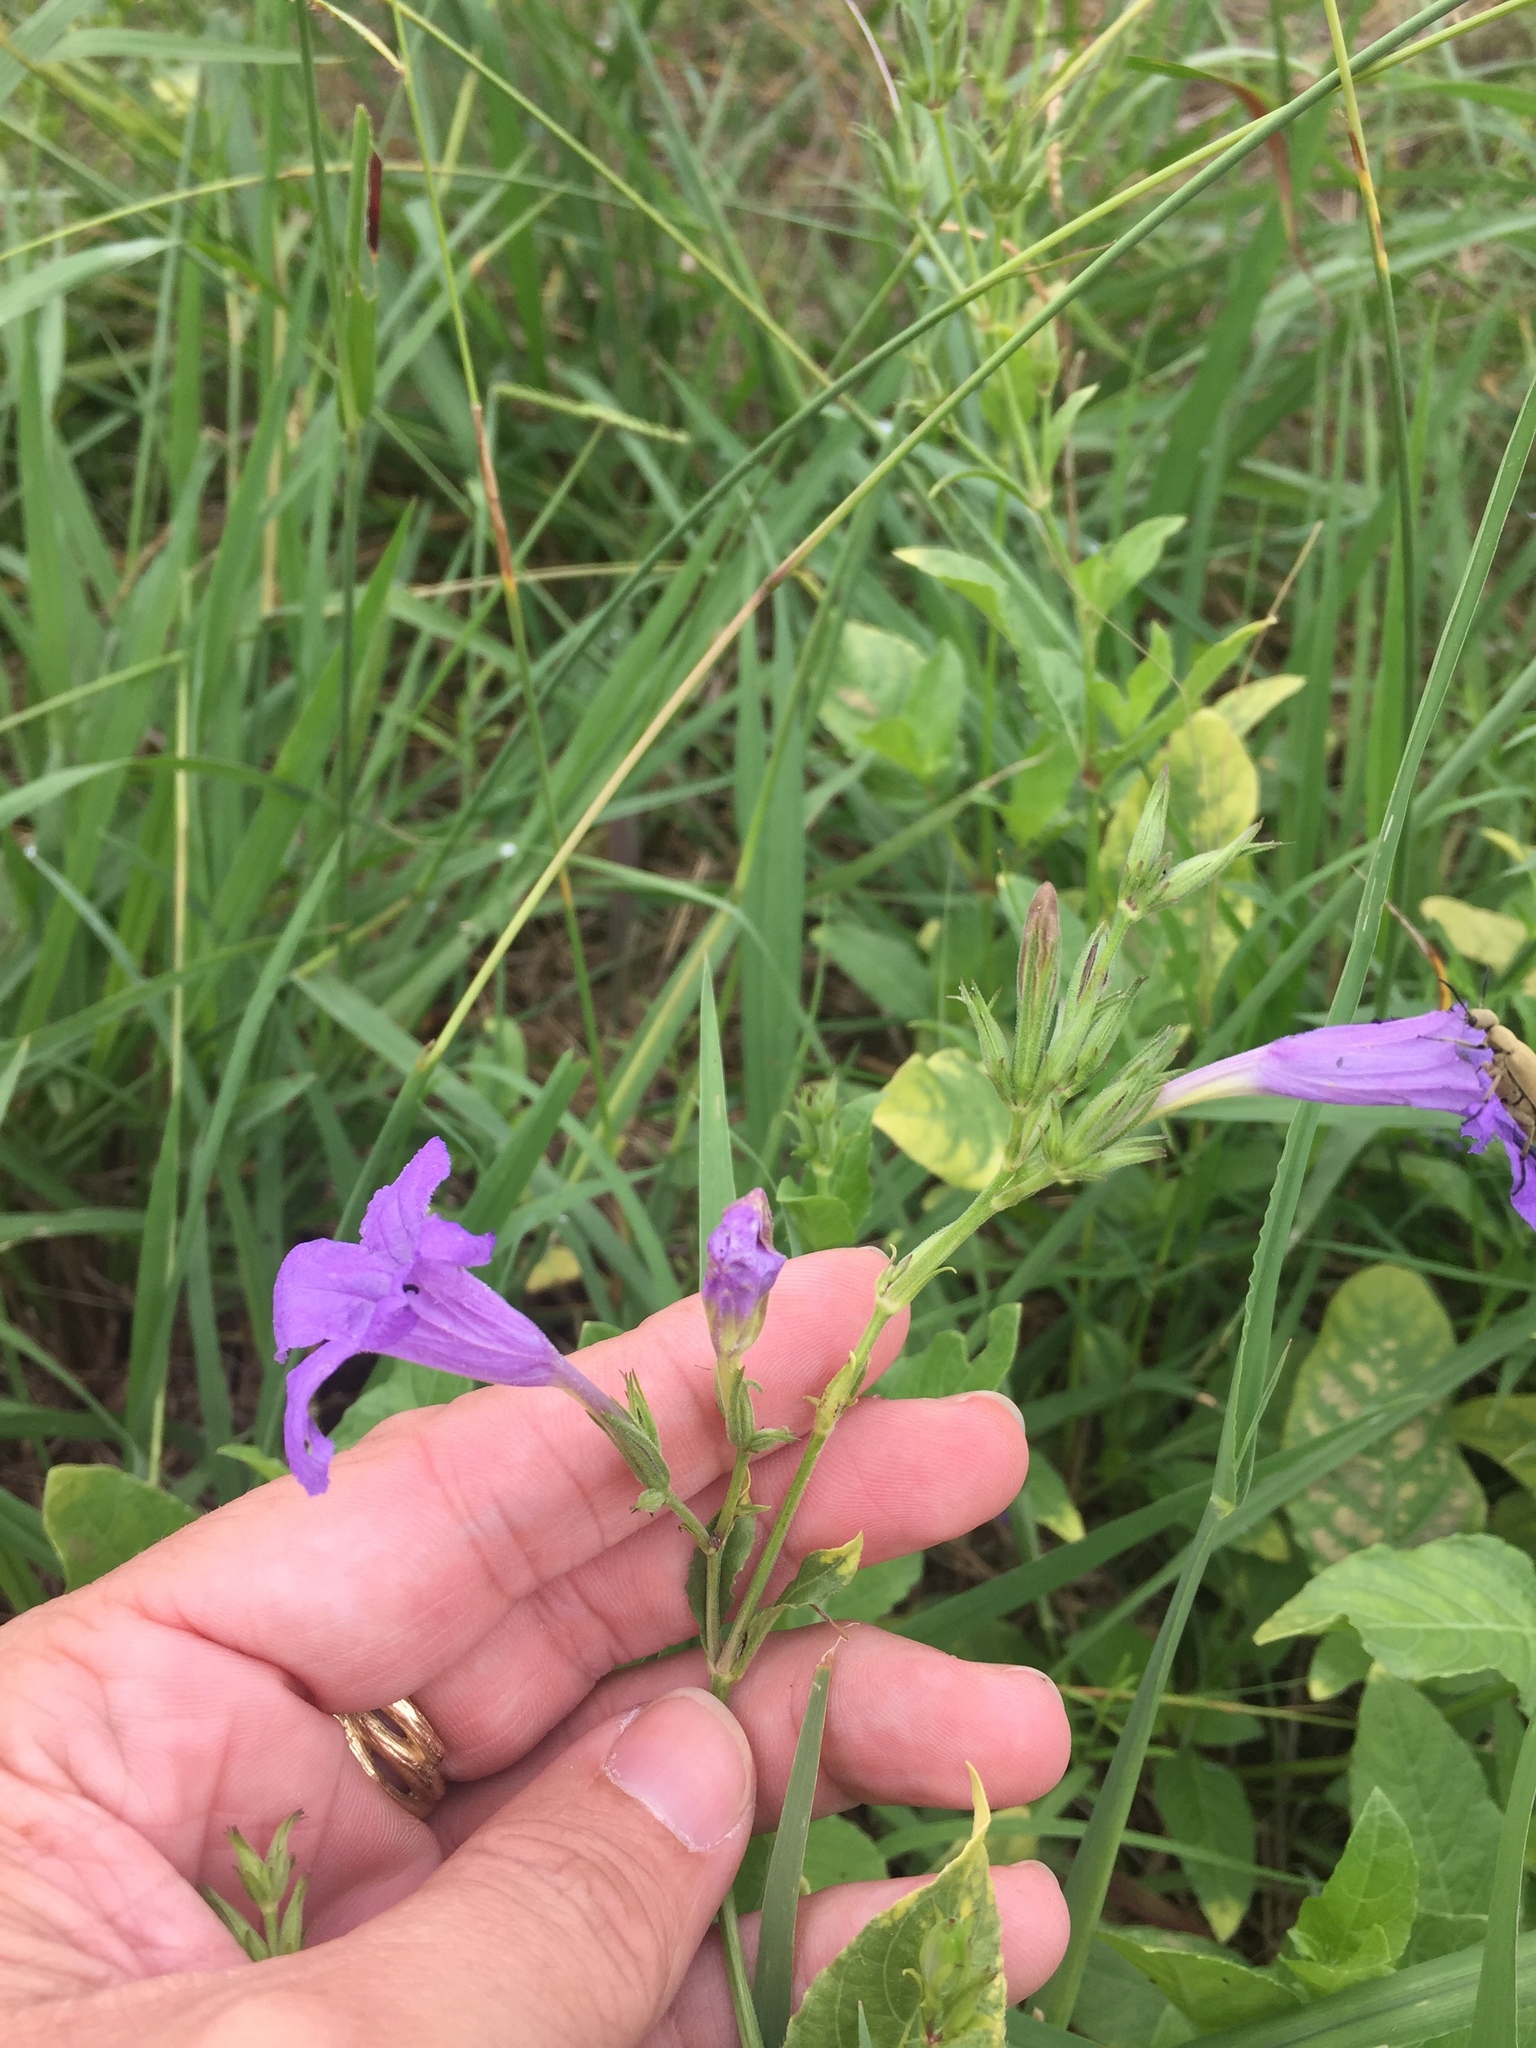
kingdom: Plantae
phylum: Tracheophyta
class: Magnoliopsida
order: Lamiales
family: Acanthaceae
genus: Ruellia
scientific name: Ruellia ciliatiflora
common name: Hairyflower wild petunia
